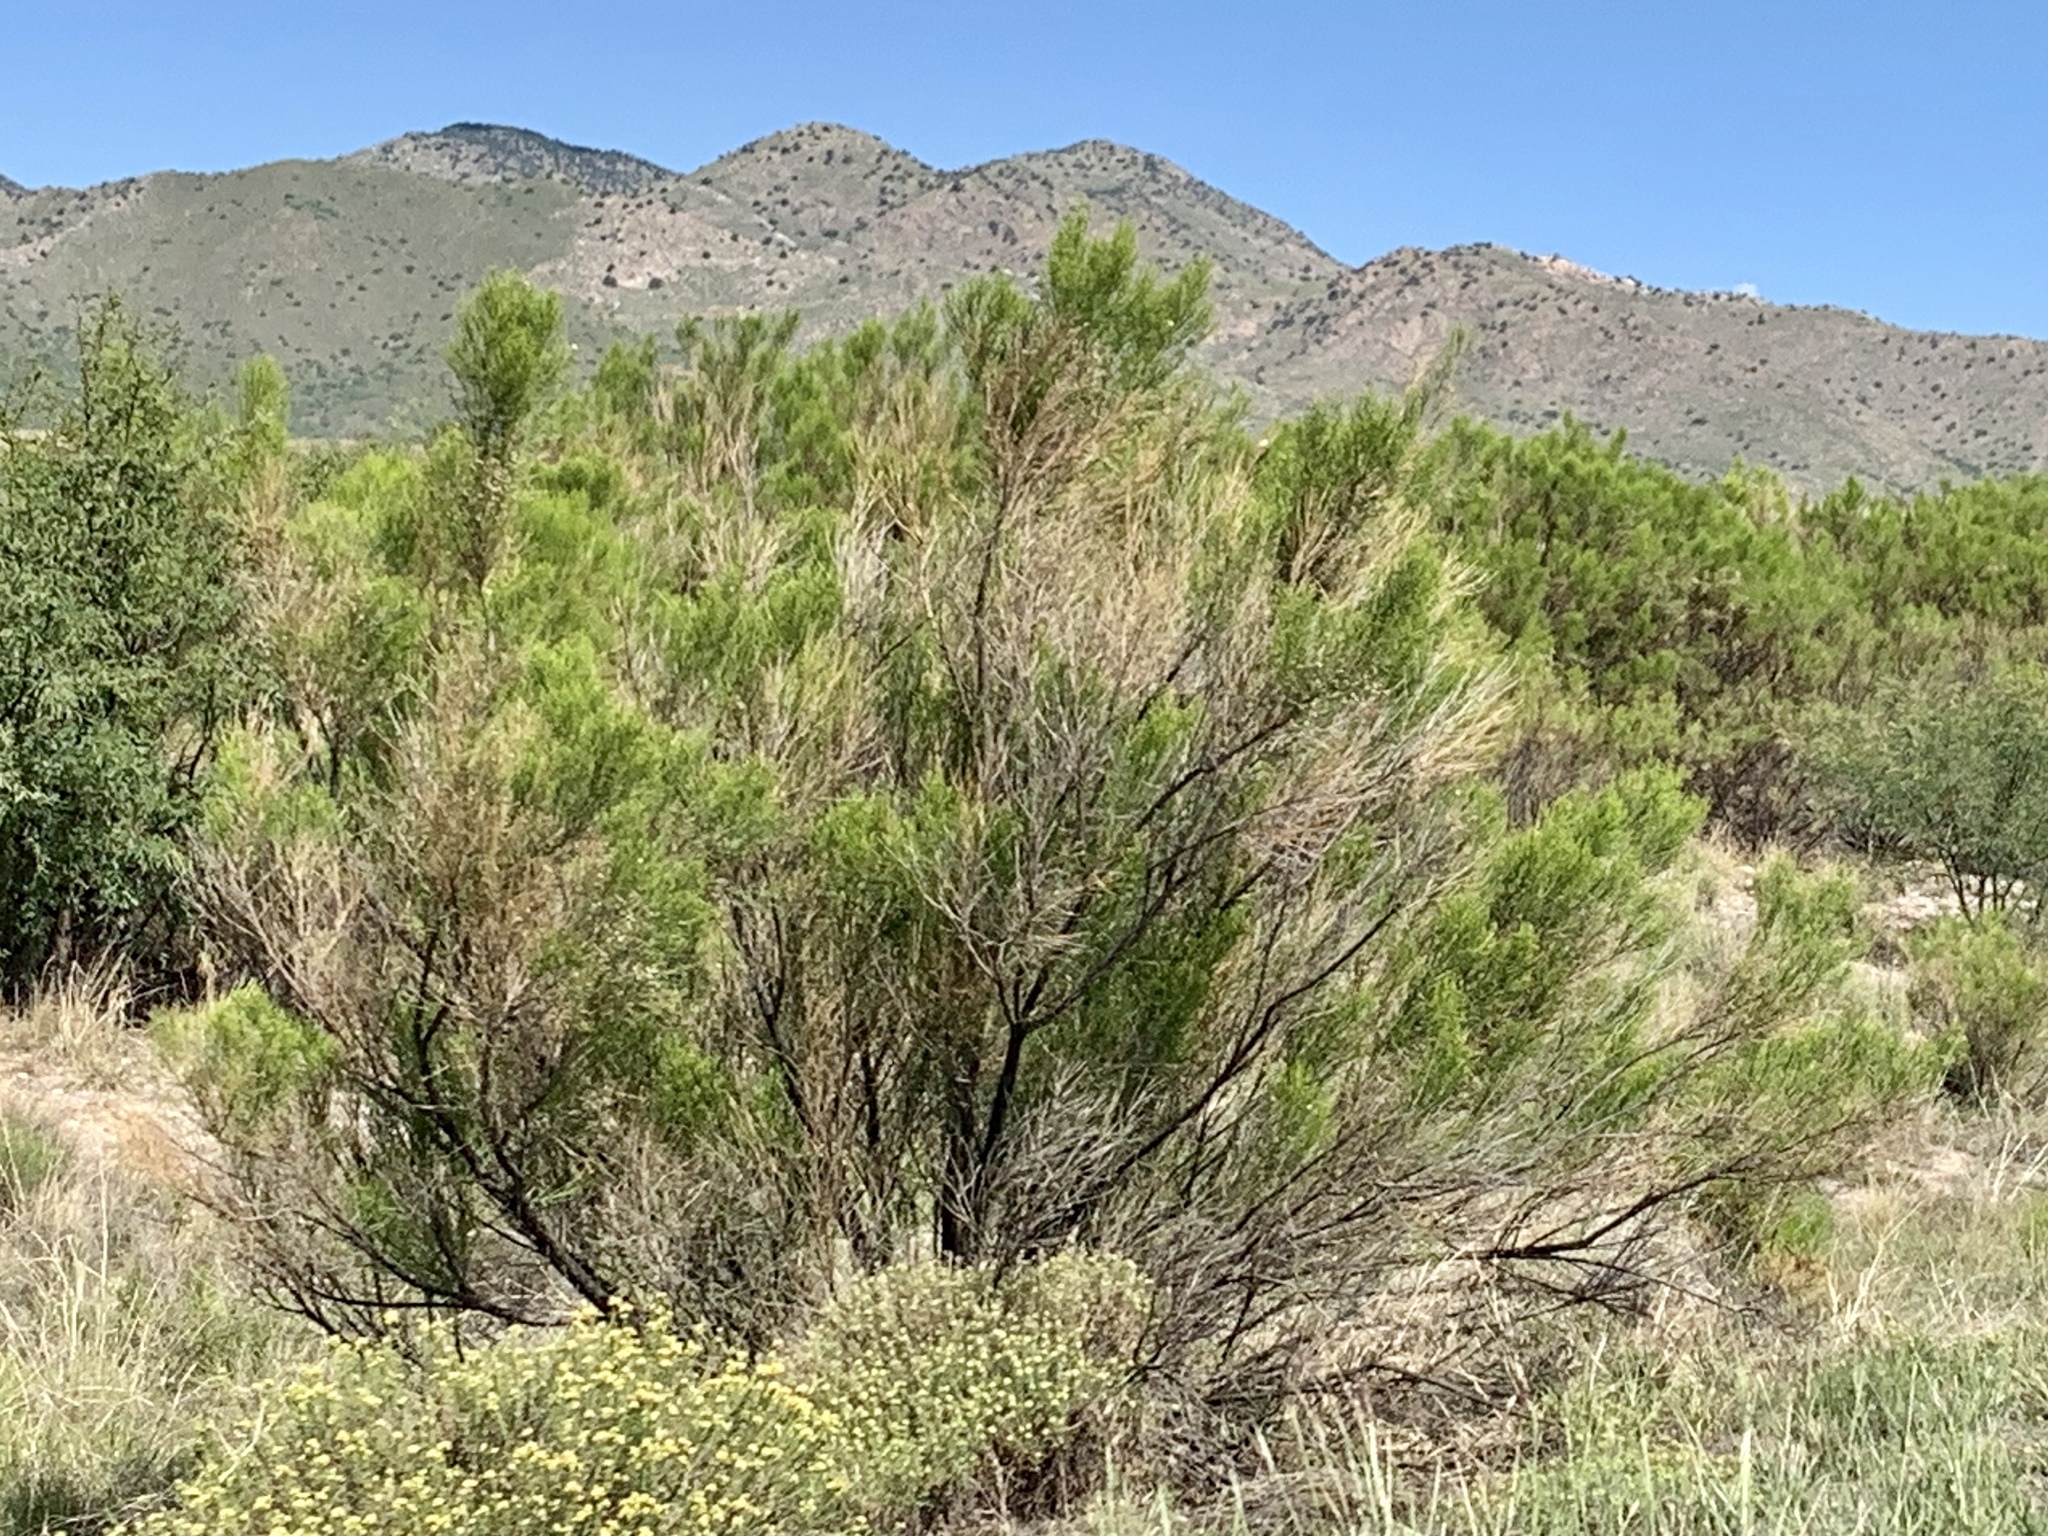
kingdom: Plantae
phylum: Tracheophyta
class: Magnoliopsida
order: Asterales
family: Asteraceae
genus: Baccharis
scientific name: Baccharis sarothroides
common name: Desert-broom
